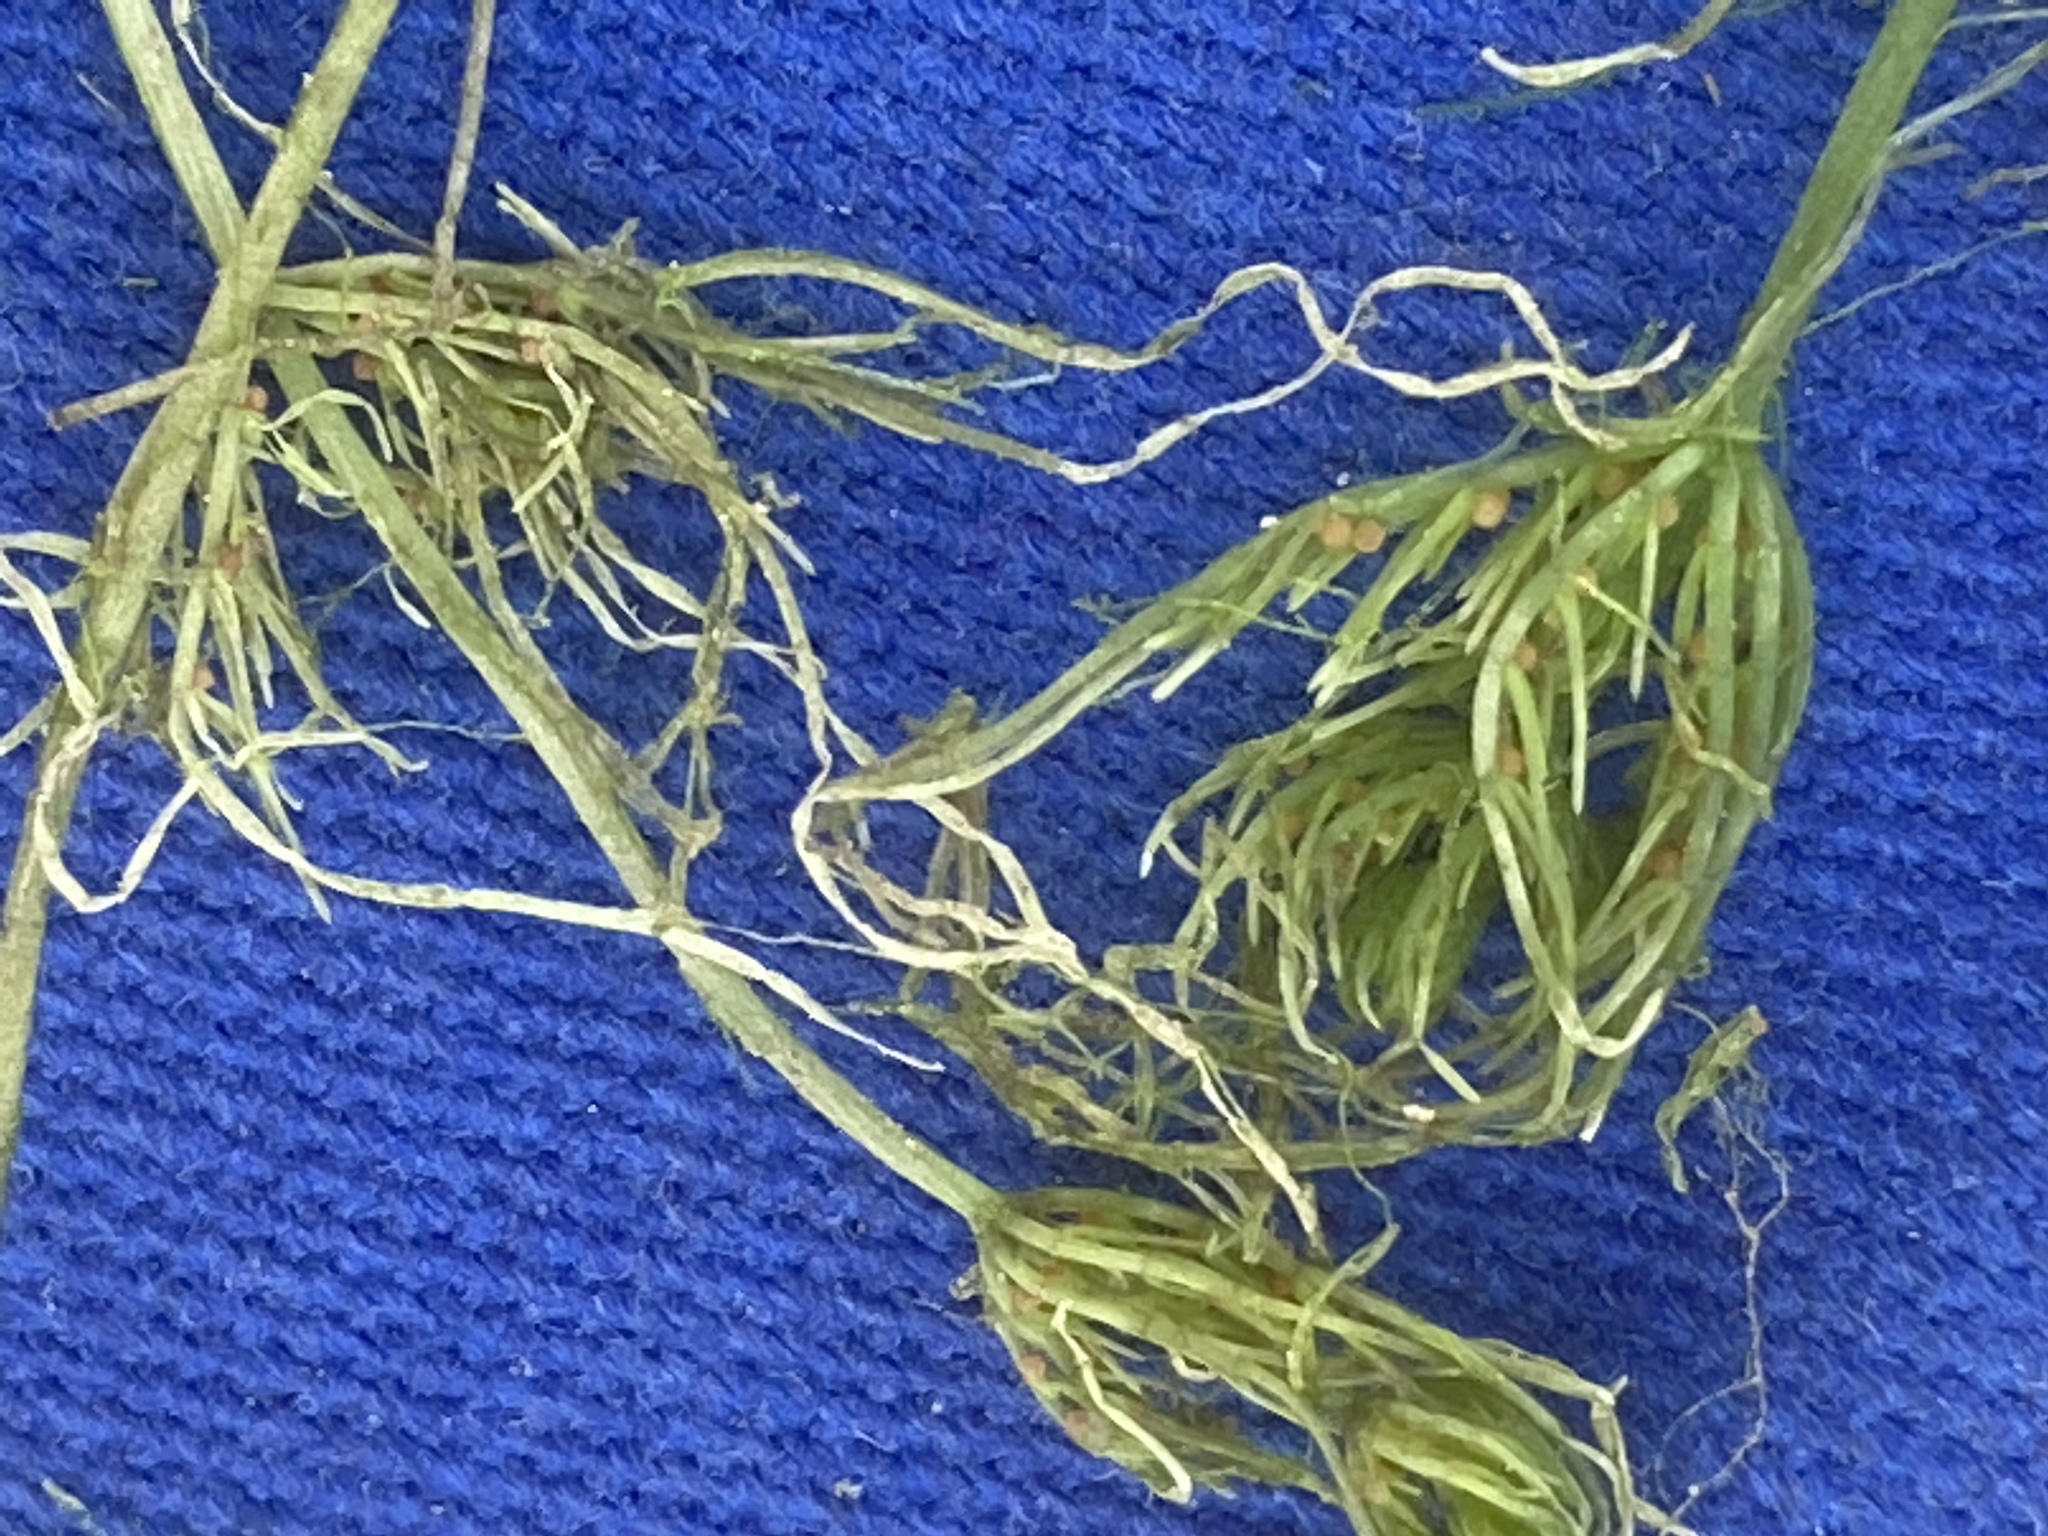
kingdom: Plantae
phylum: Charophyta
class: Charophyceae
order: Charales
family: Characeae
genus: Chara
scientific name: Chara vulgaris
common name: Common stonewort
